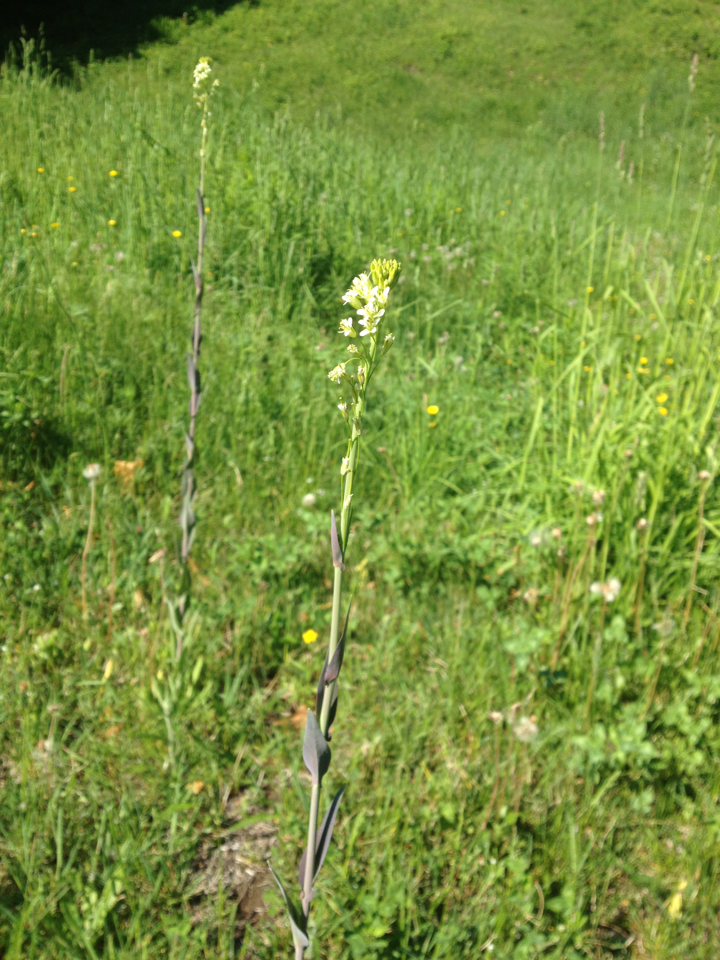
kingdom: Plantae
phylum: Tracheophyta
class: Magnoliopsida
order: Brassicales
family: Brassicaceae
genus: Turritis
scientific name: Turritis glabra
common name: Tower rockcress
